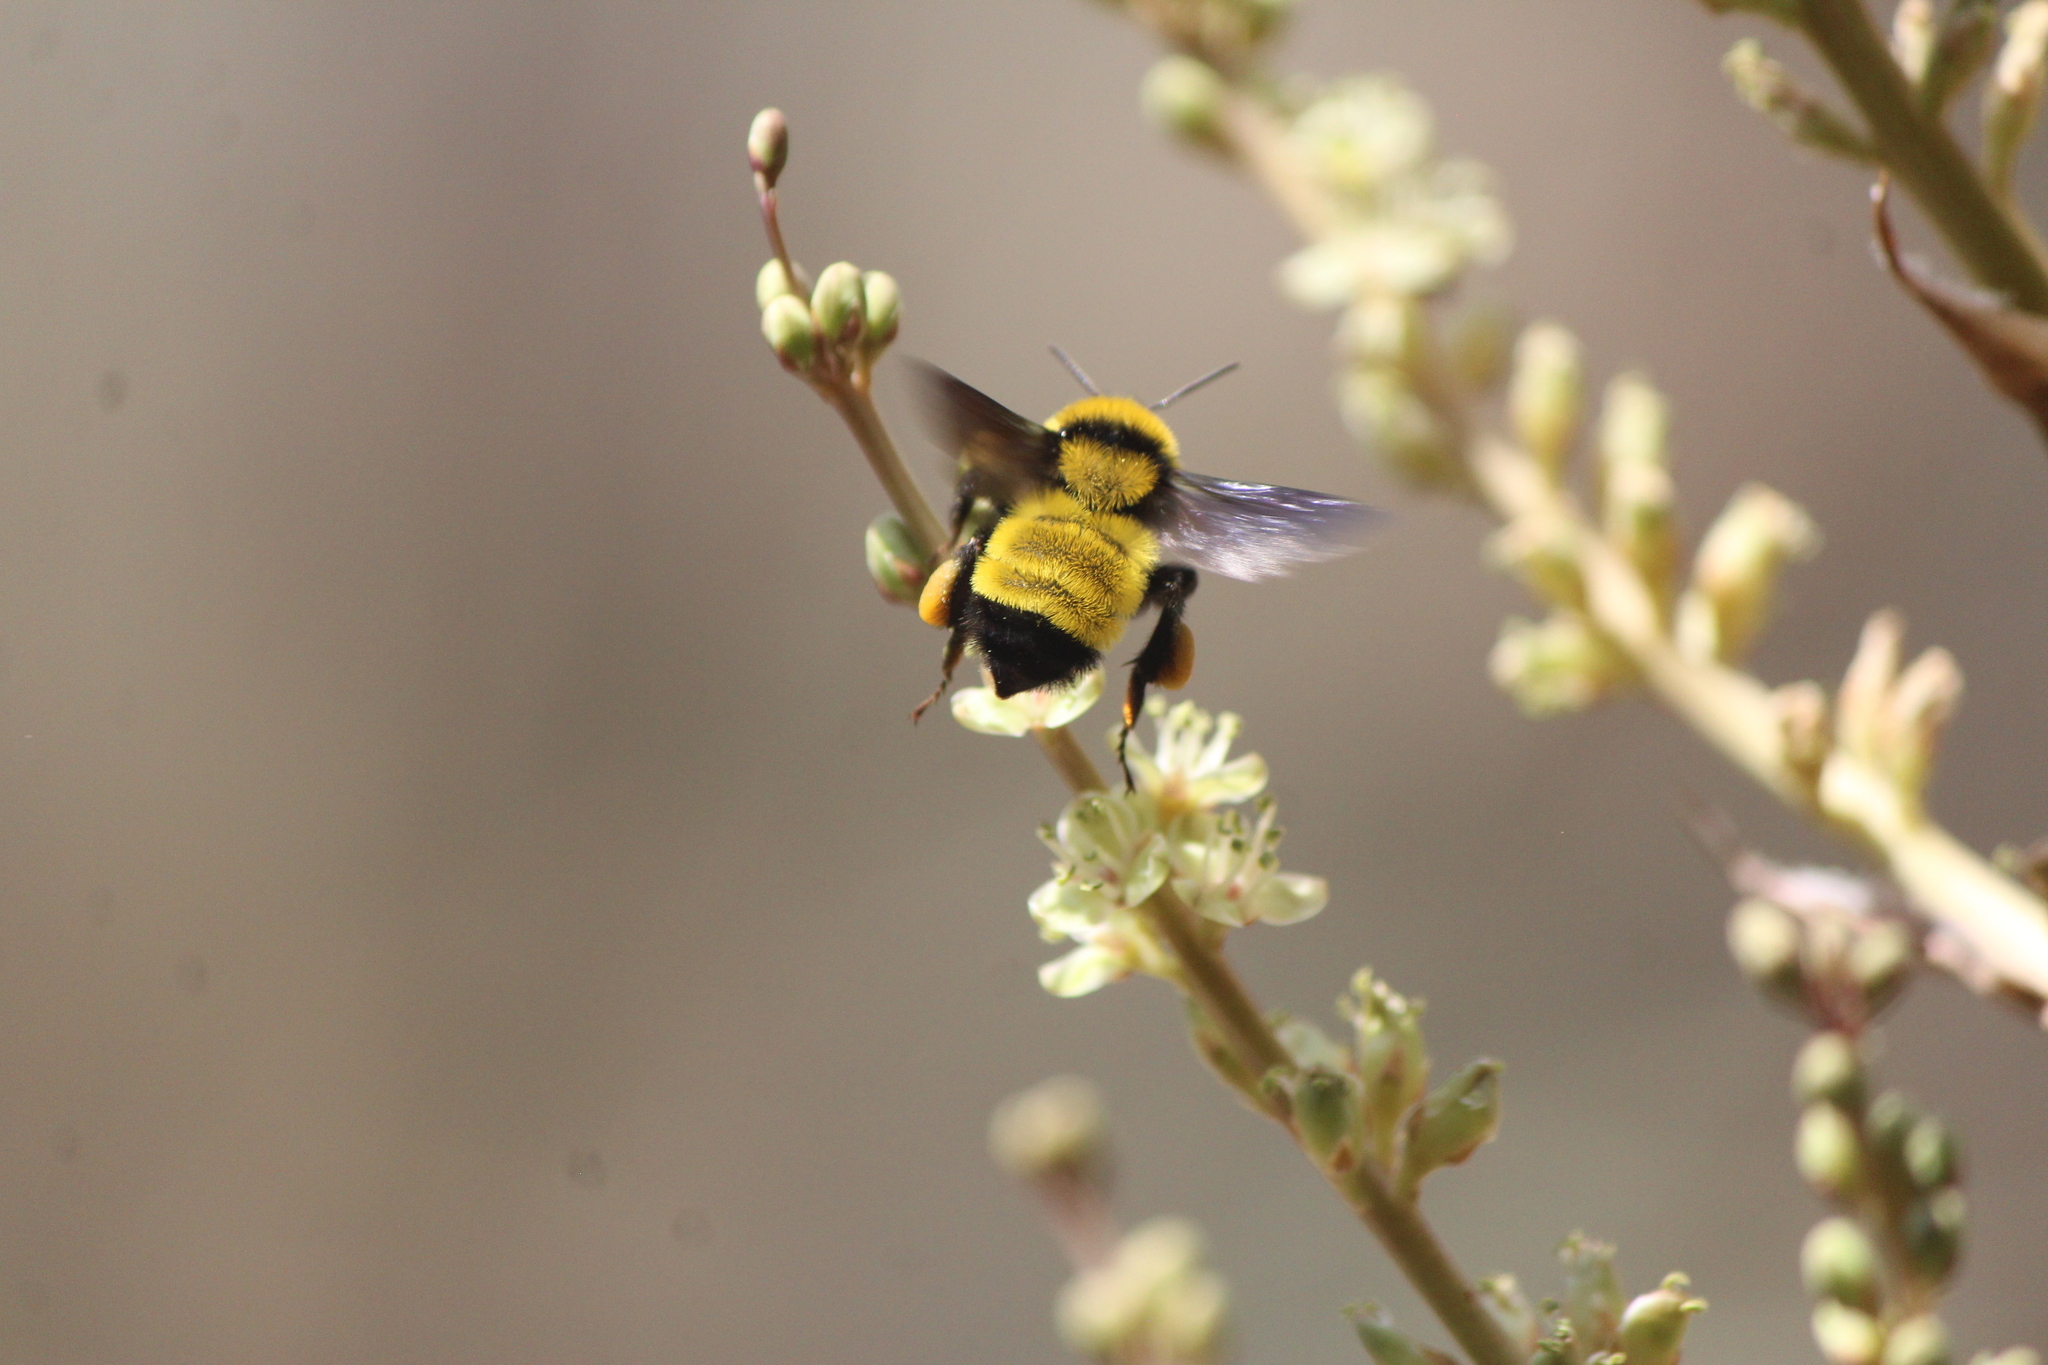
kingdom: Animalia
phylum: Arthropoda
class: Insecta
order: Hymenoptera
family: Apidae
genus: Bombus
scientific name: Bombus sonorus
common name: Sonoran bumble bee
